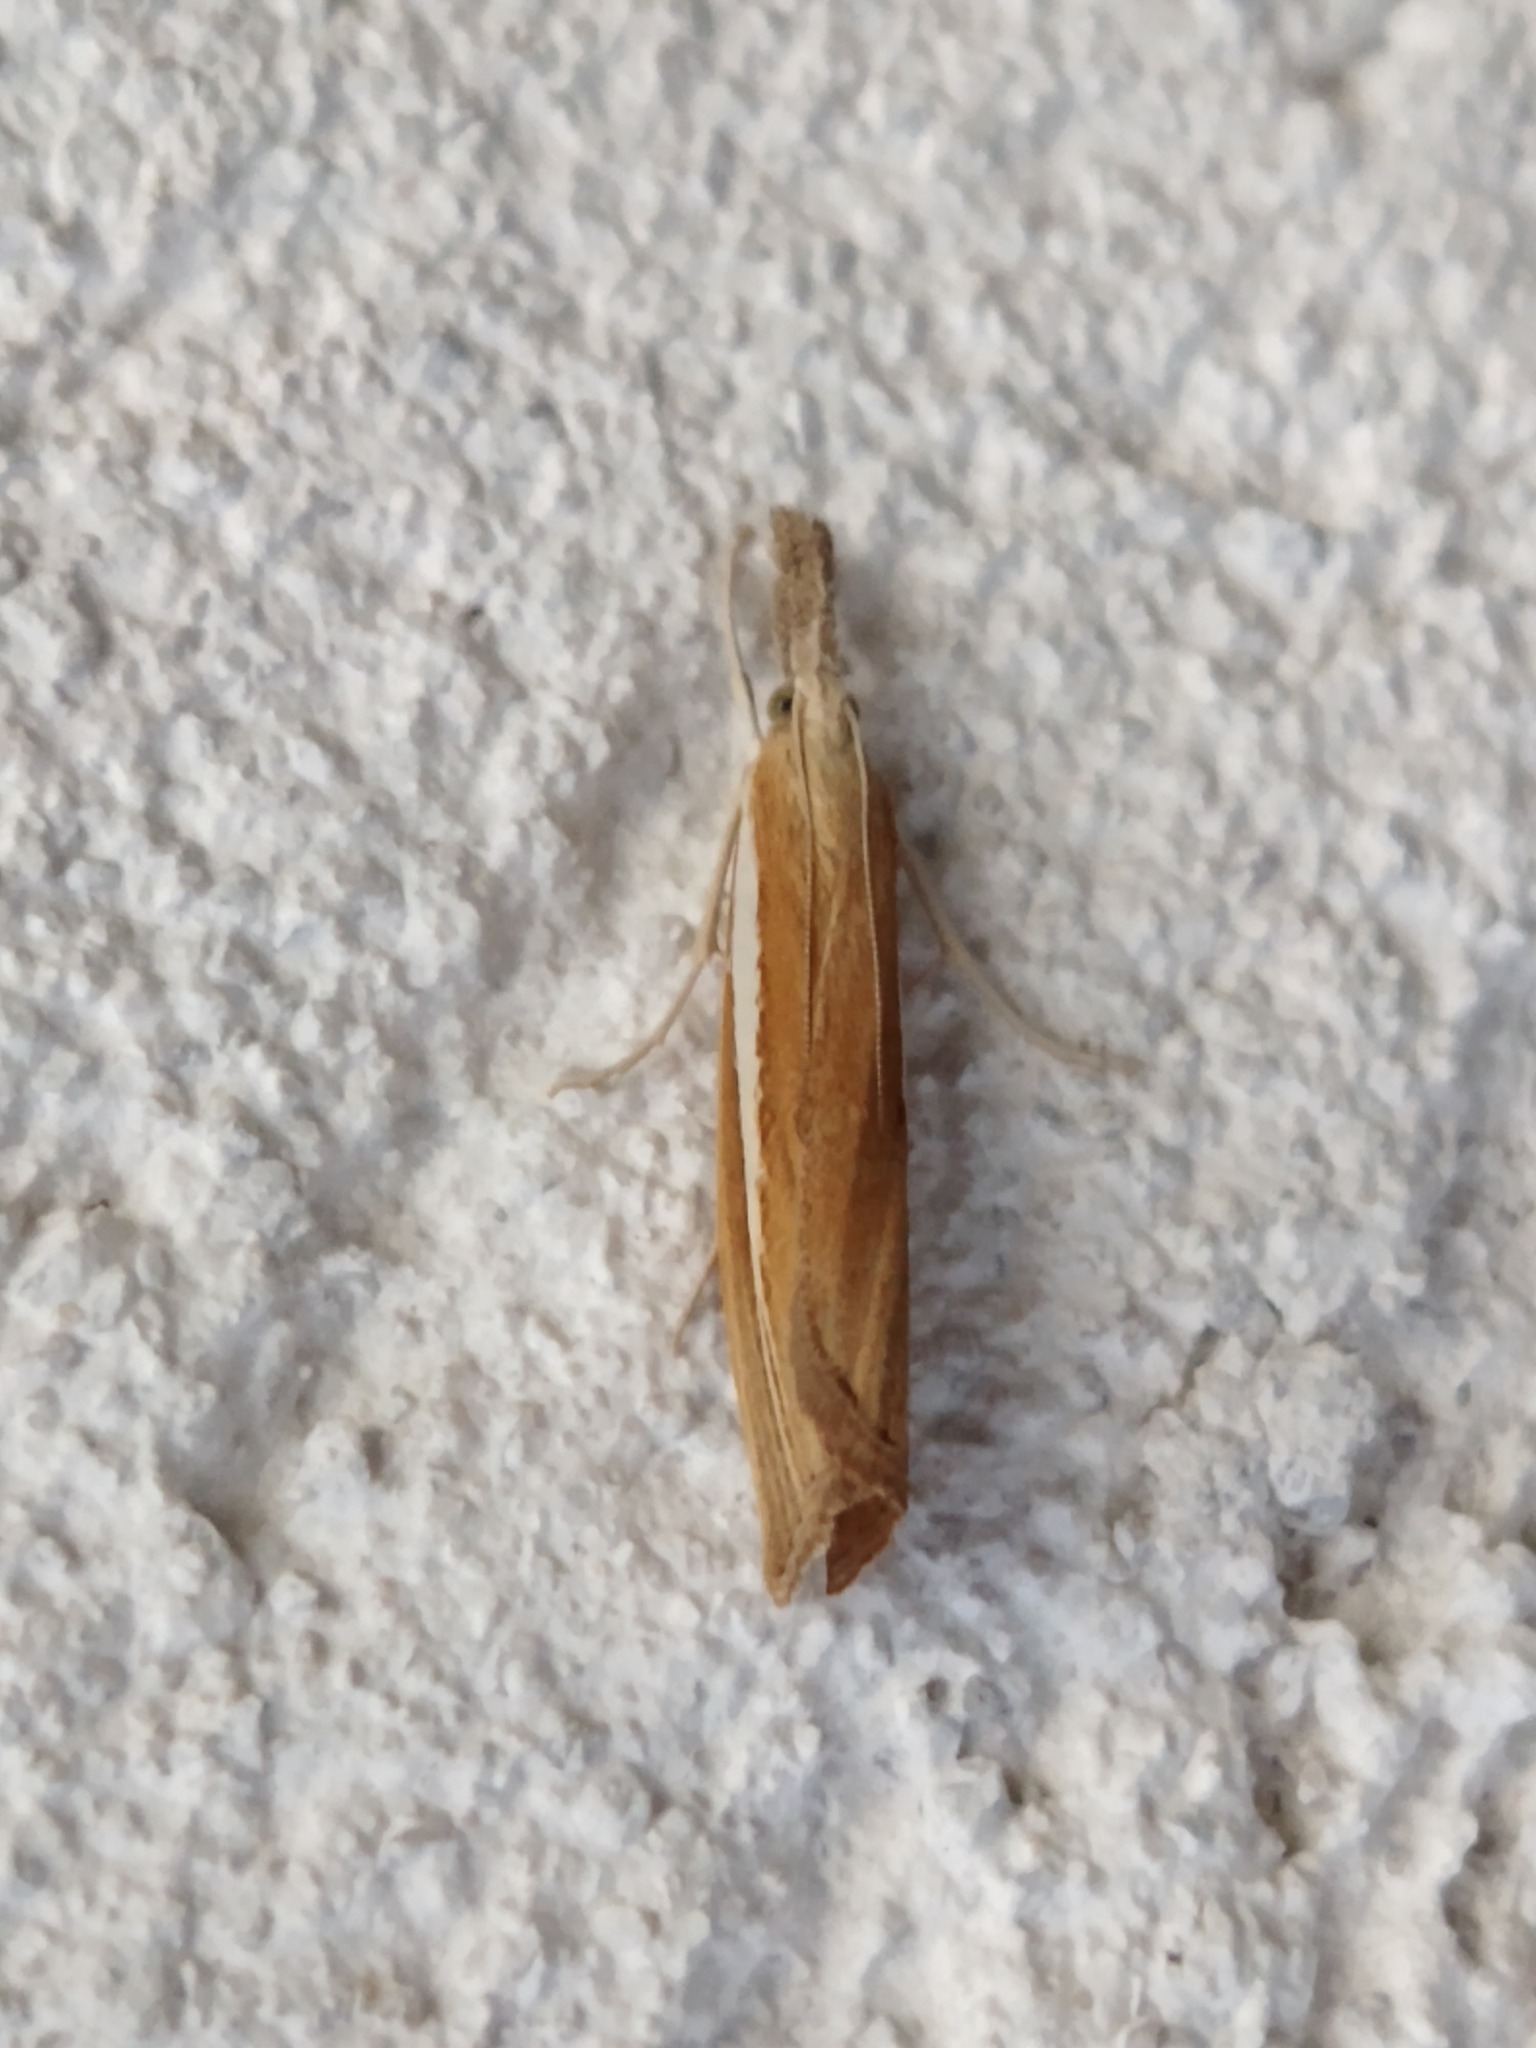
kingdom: Animalia
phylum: Arthropoda
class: Insecta
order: Lepidoptera
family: Crambidae
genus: Agriphila
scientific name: Agriphila selasella
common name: Pale-streak grass-veneer
